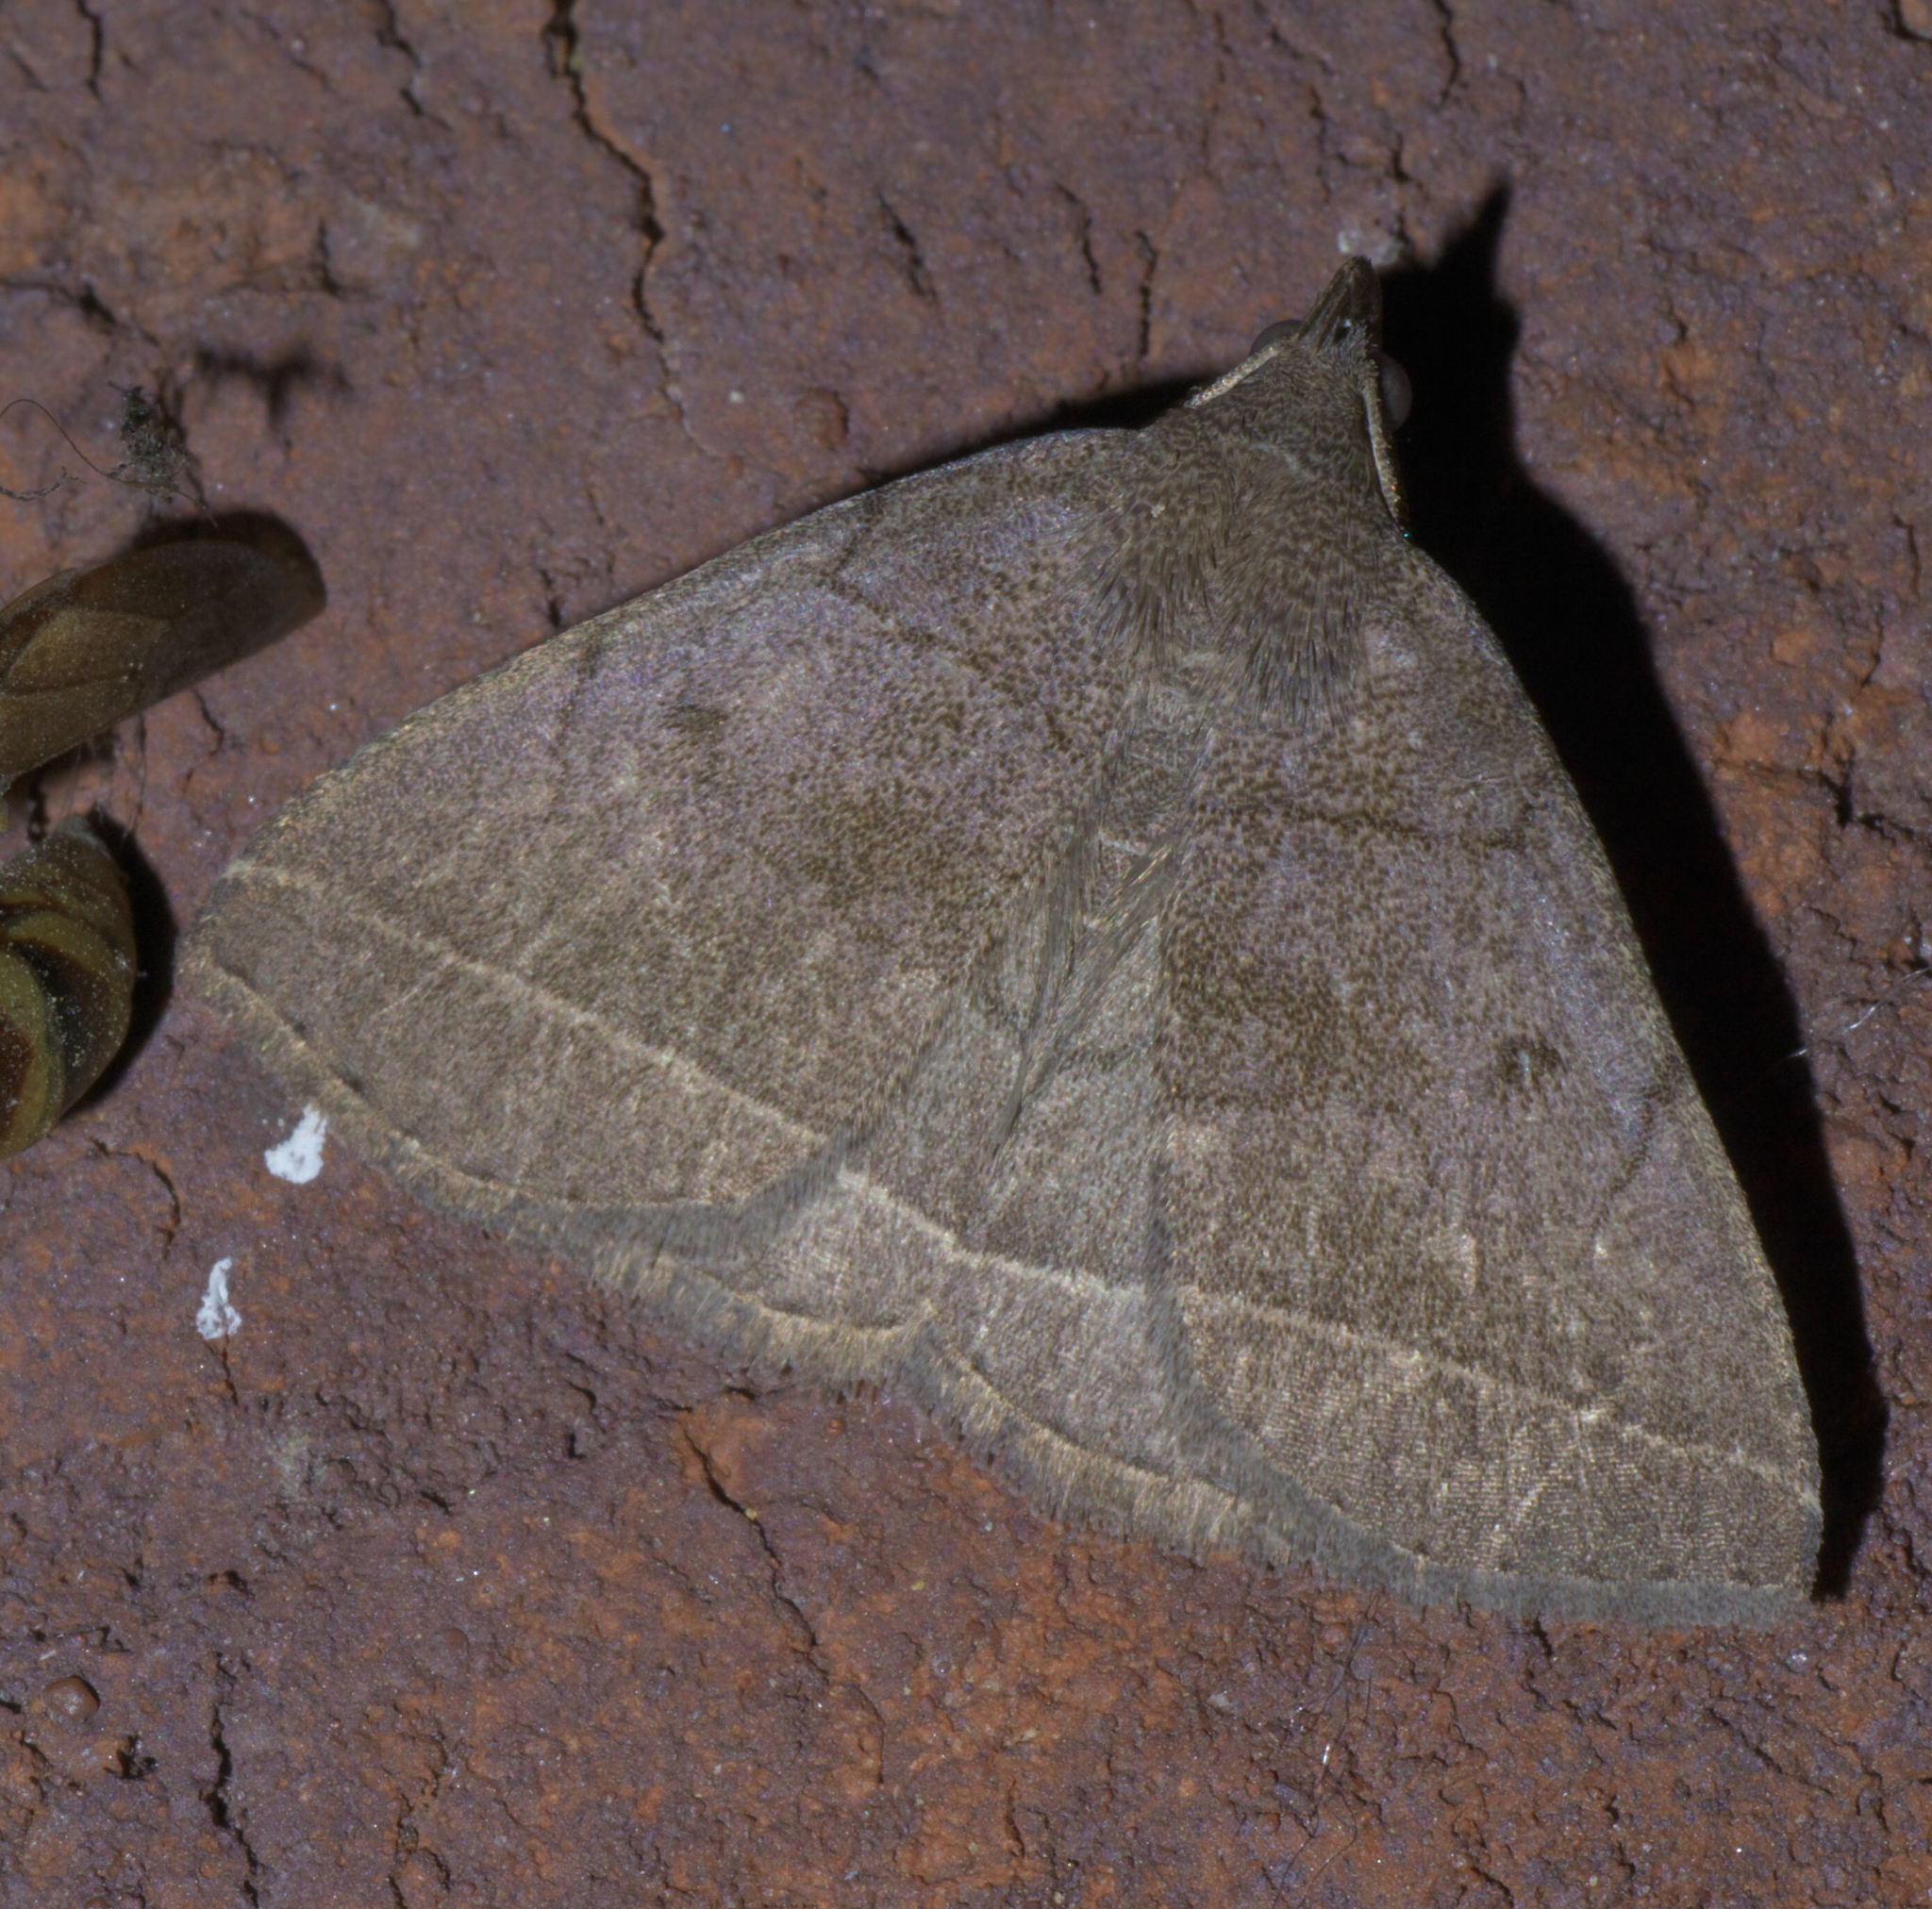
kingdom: Animalia
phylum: Arthropoda
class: Insecta
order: Lepidoptera
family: Erebidae
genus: Zanclognatha
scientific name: Zanclognatha obscuripennis
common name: Dark fan-foot
